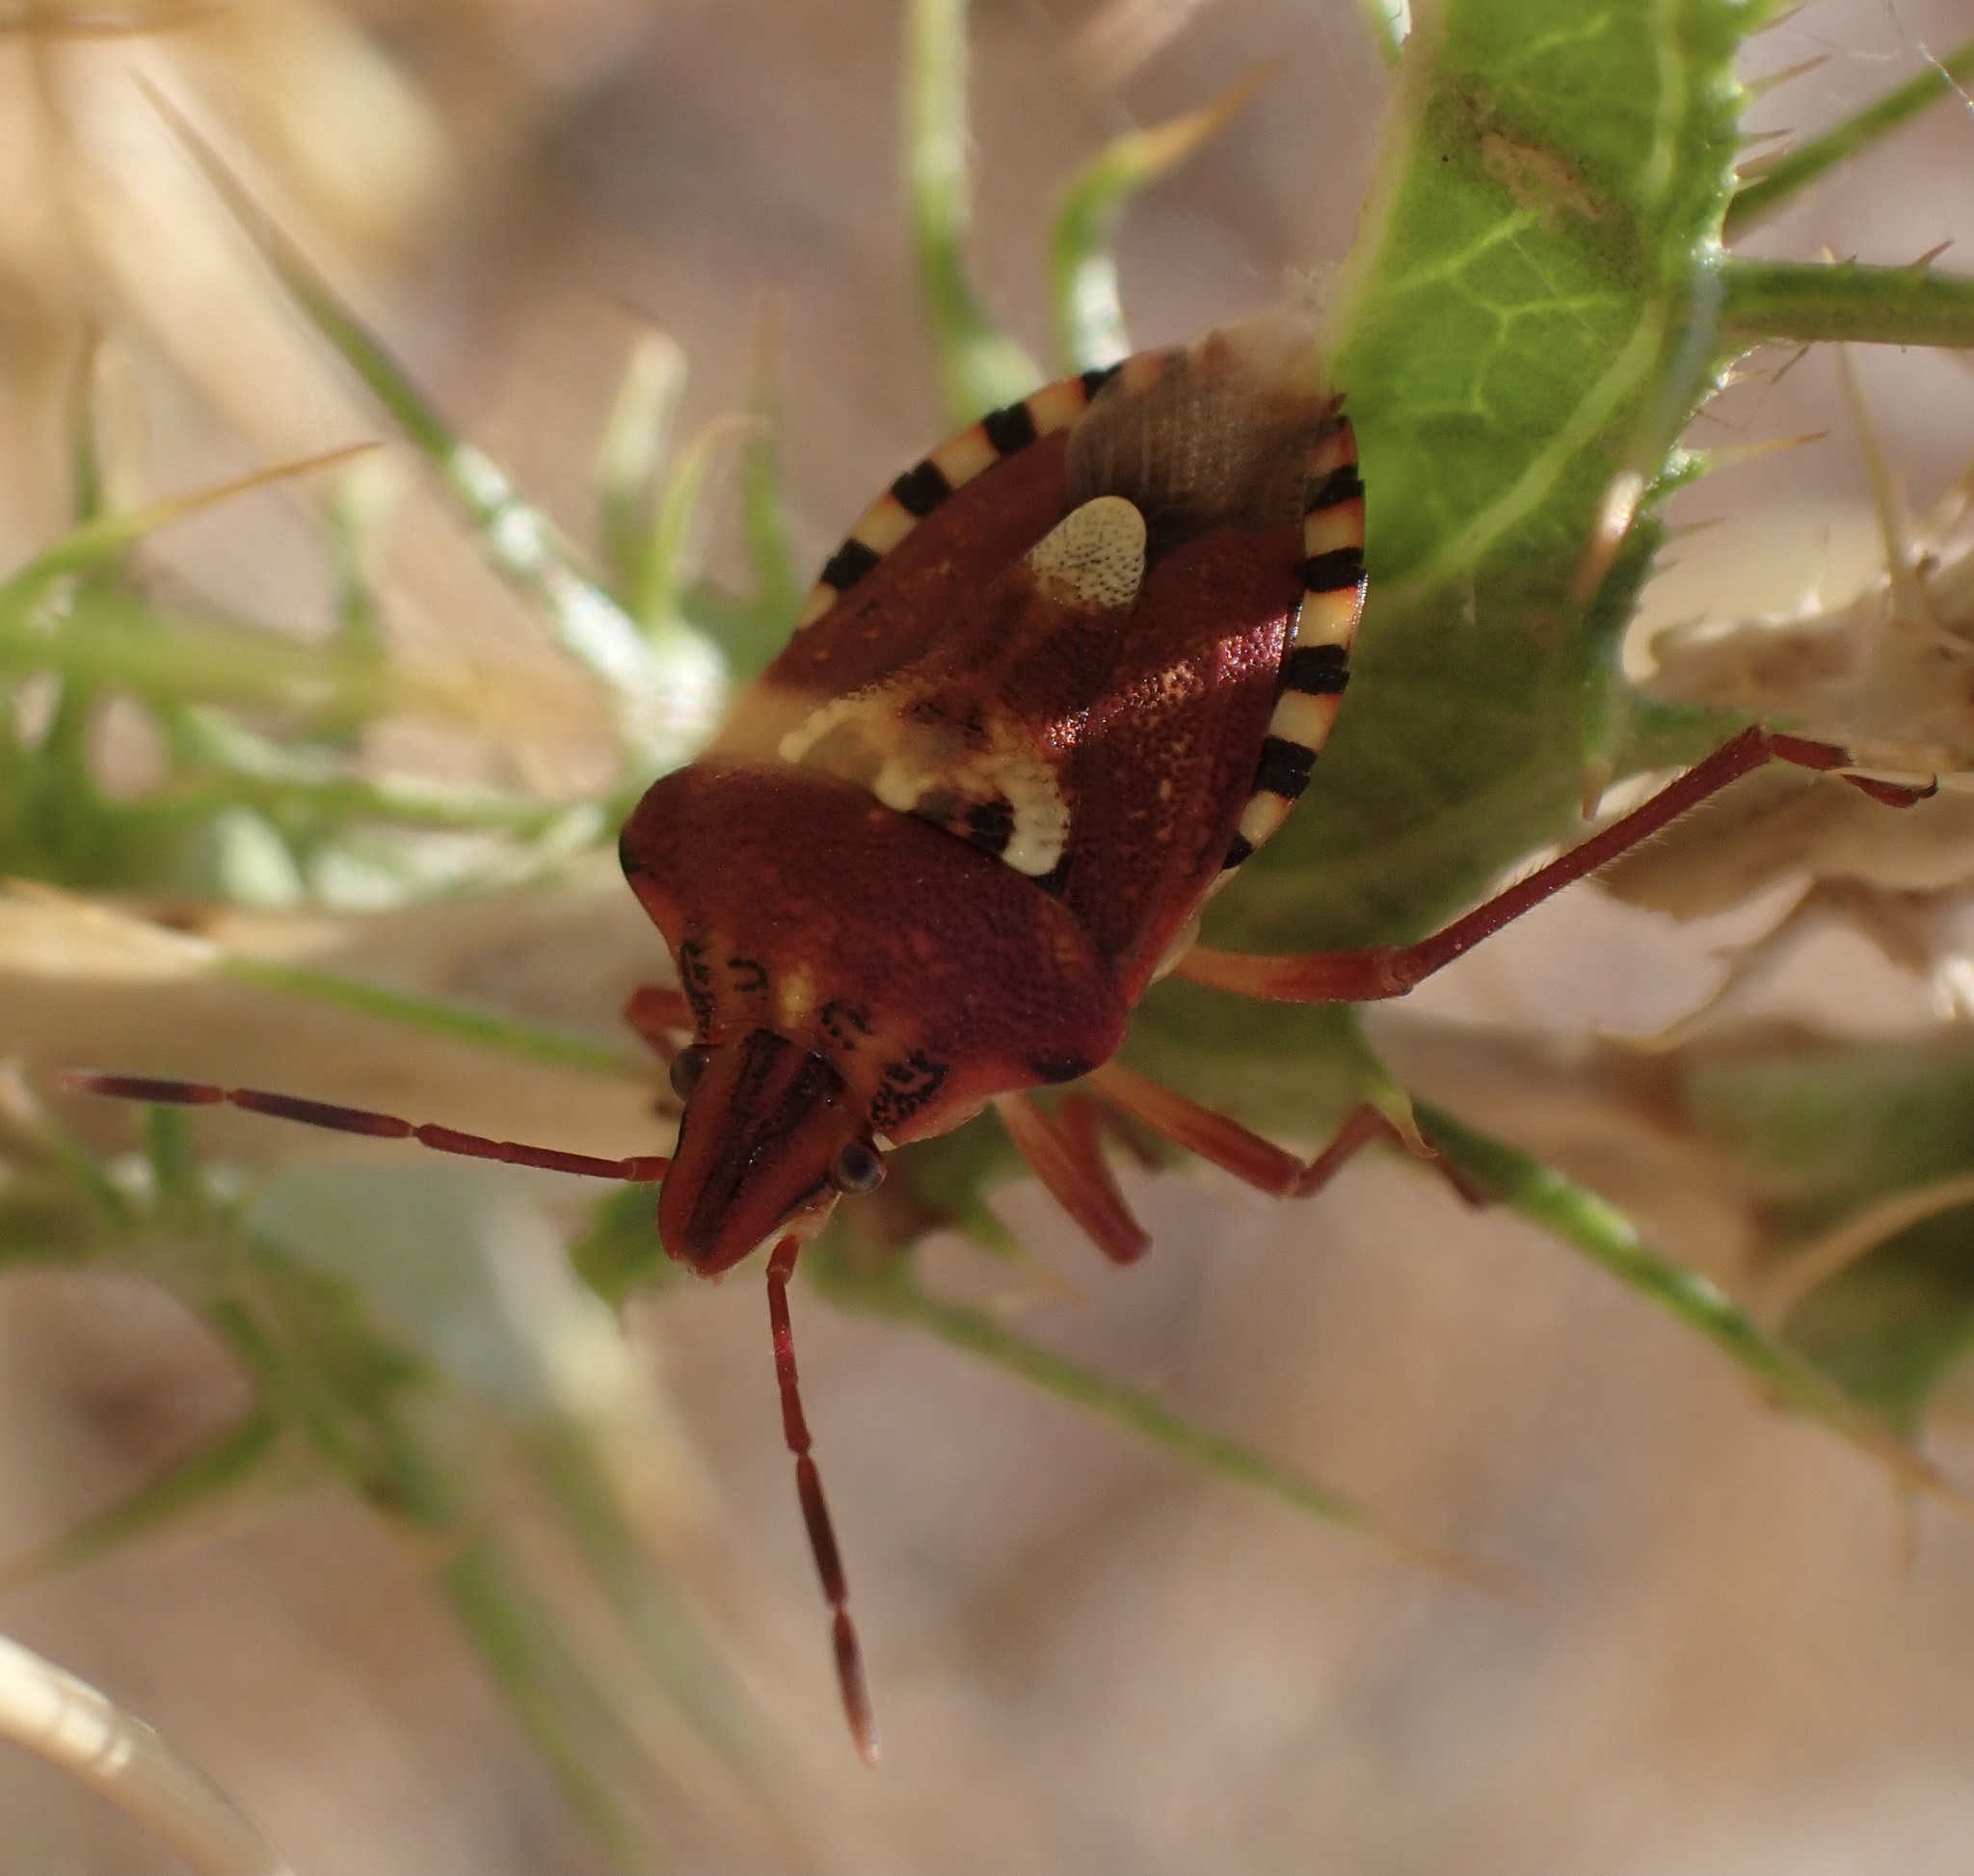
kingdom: Animalia
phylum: Arthropoda
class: Insecta
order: Hemiptera
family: Miridae
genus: Orthops
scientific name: Orthops kalmii
